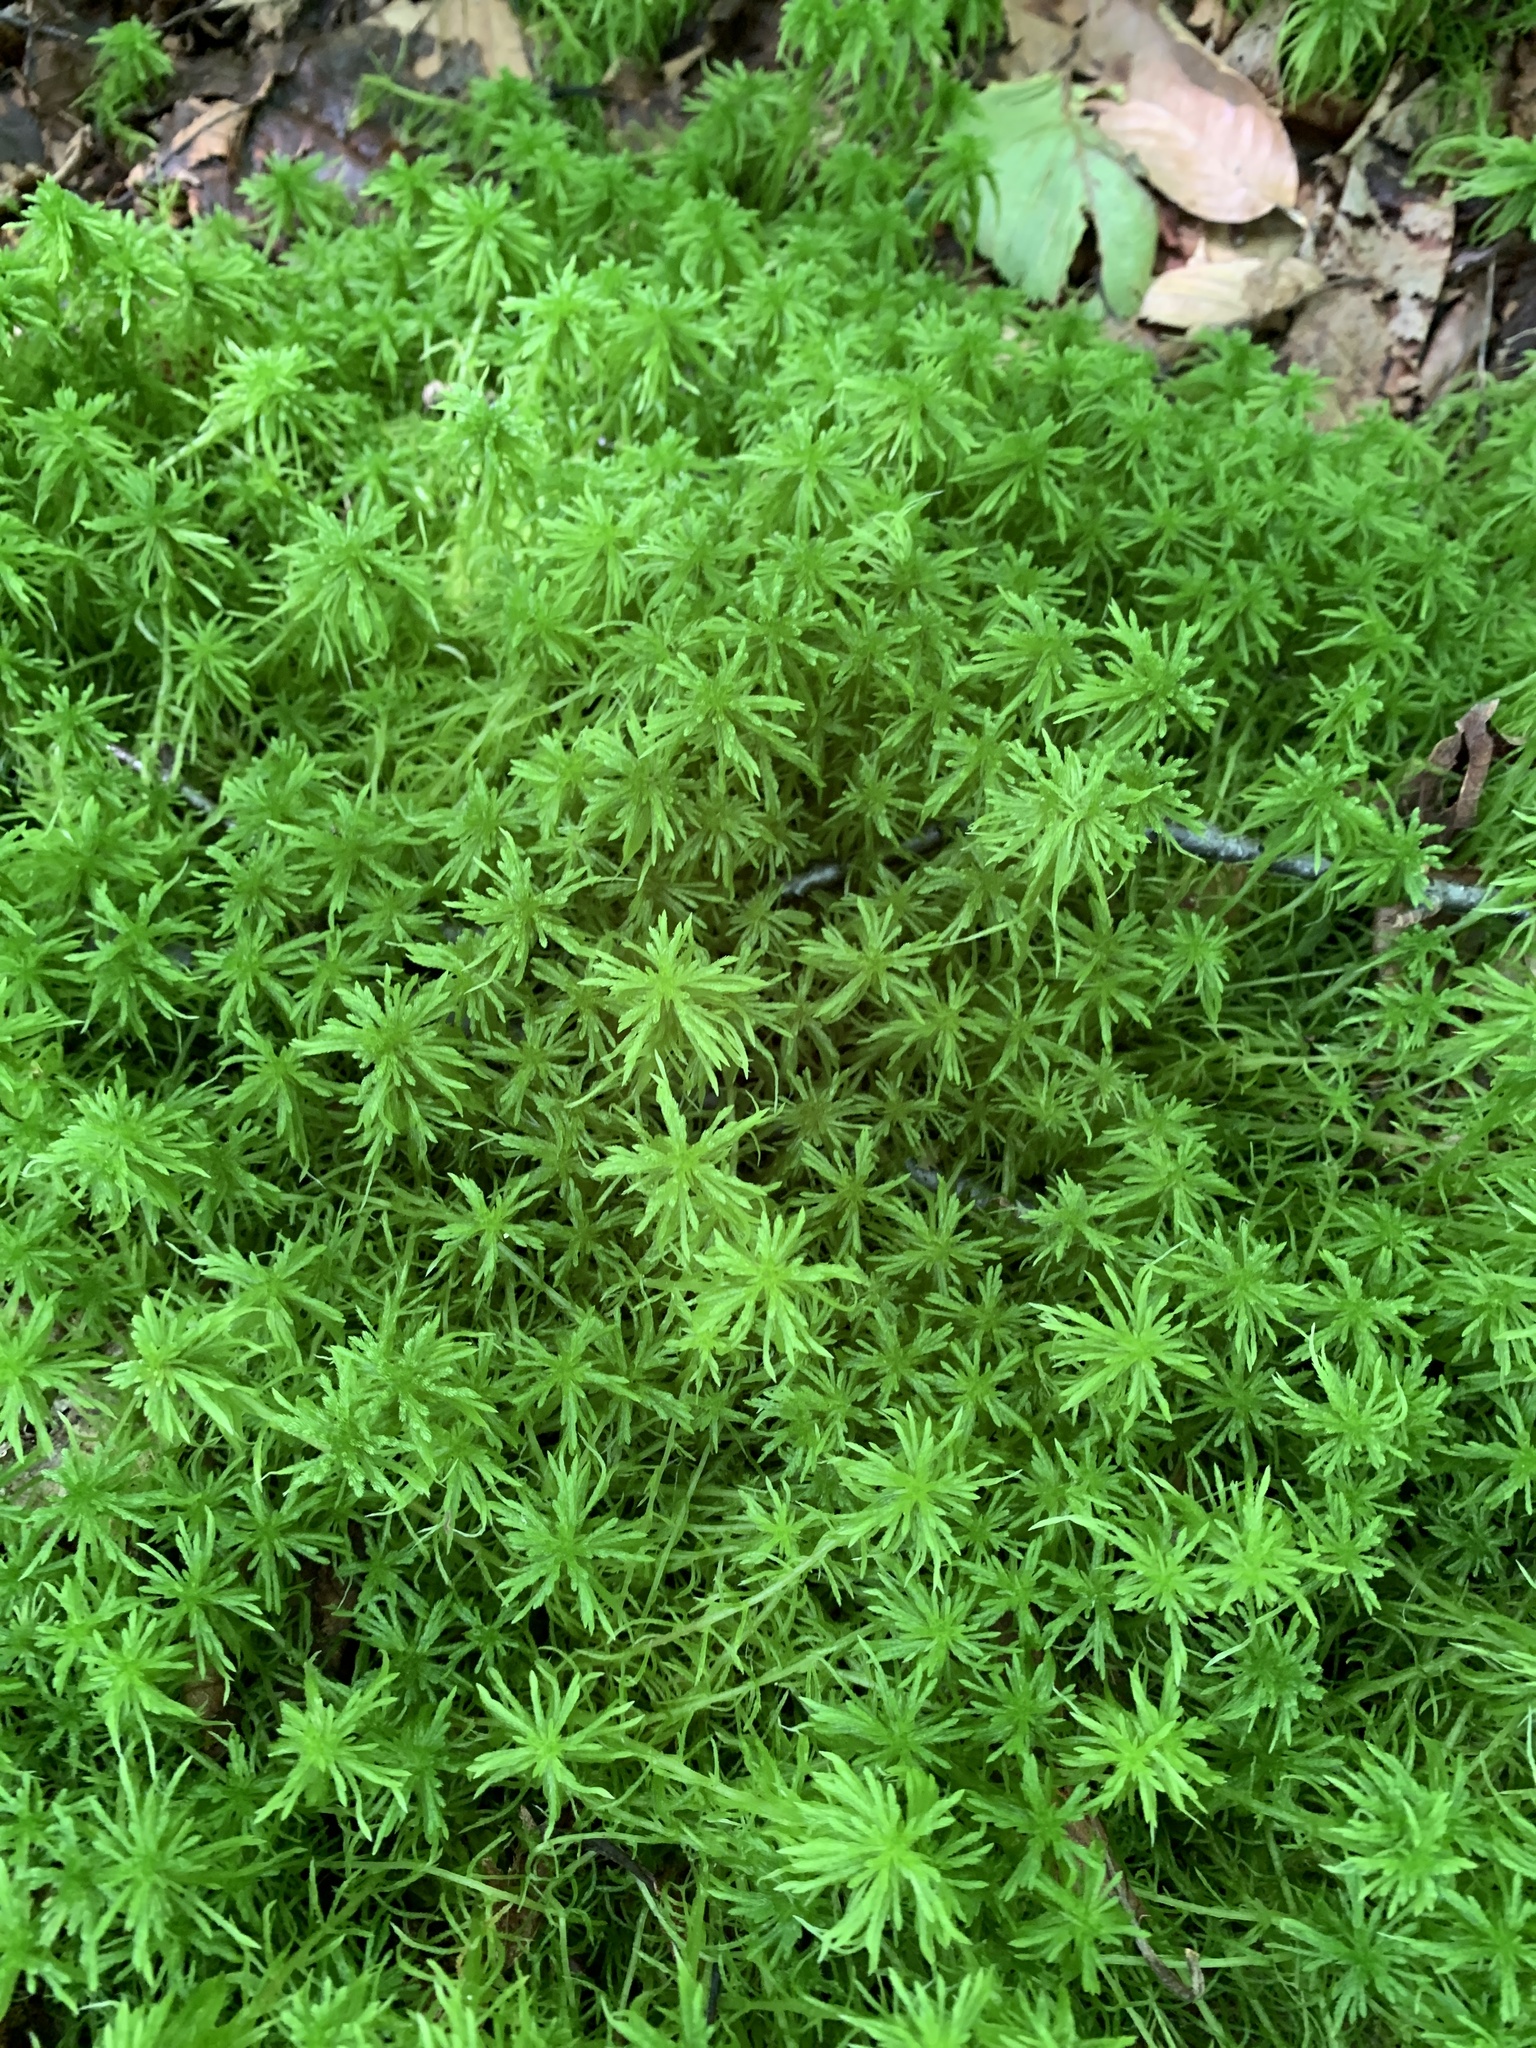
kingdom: Plantae
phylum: Bryophyta
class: Sphagnopsida
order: Sphagnales
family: Sphagnaceae
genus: Sphagnum
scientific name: Sphagnum girgensohnii
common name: Girgensohn's peat moss
